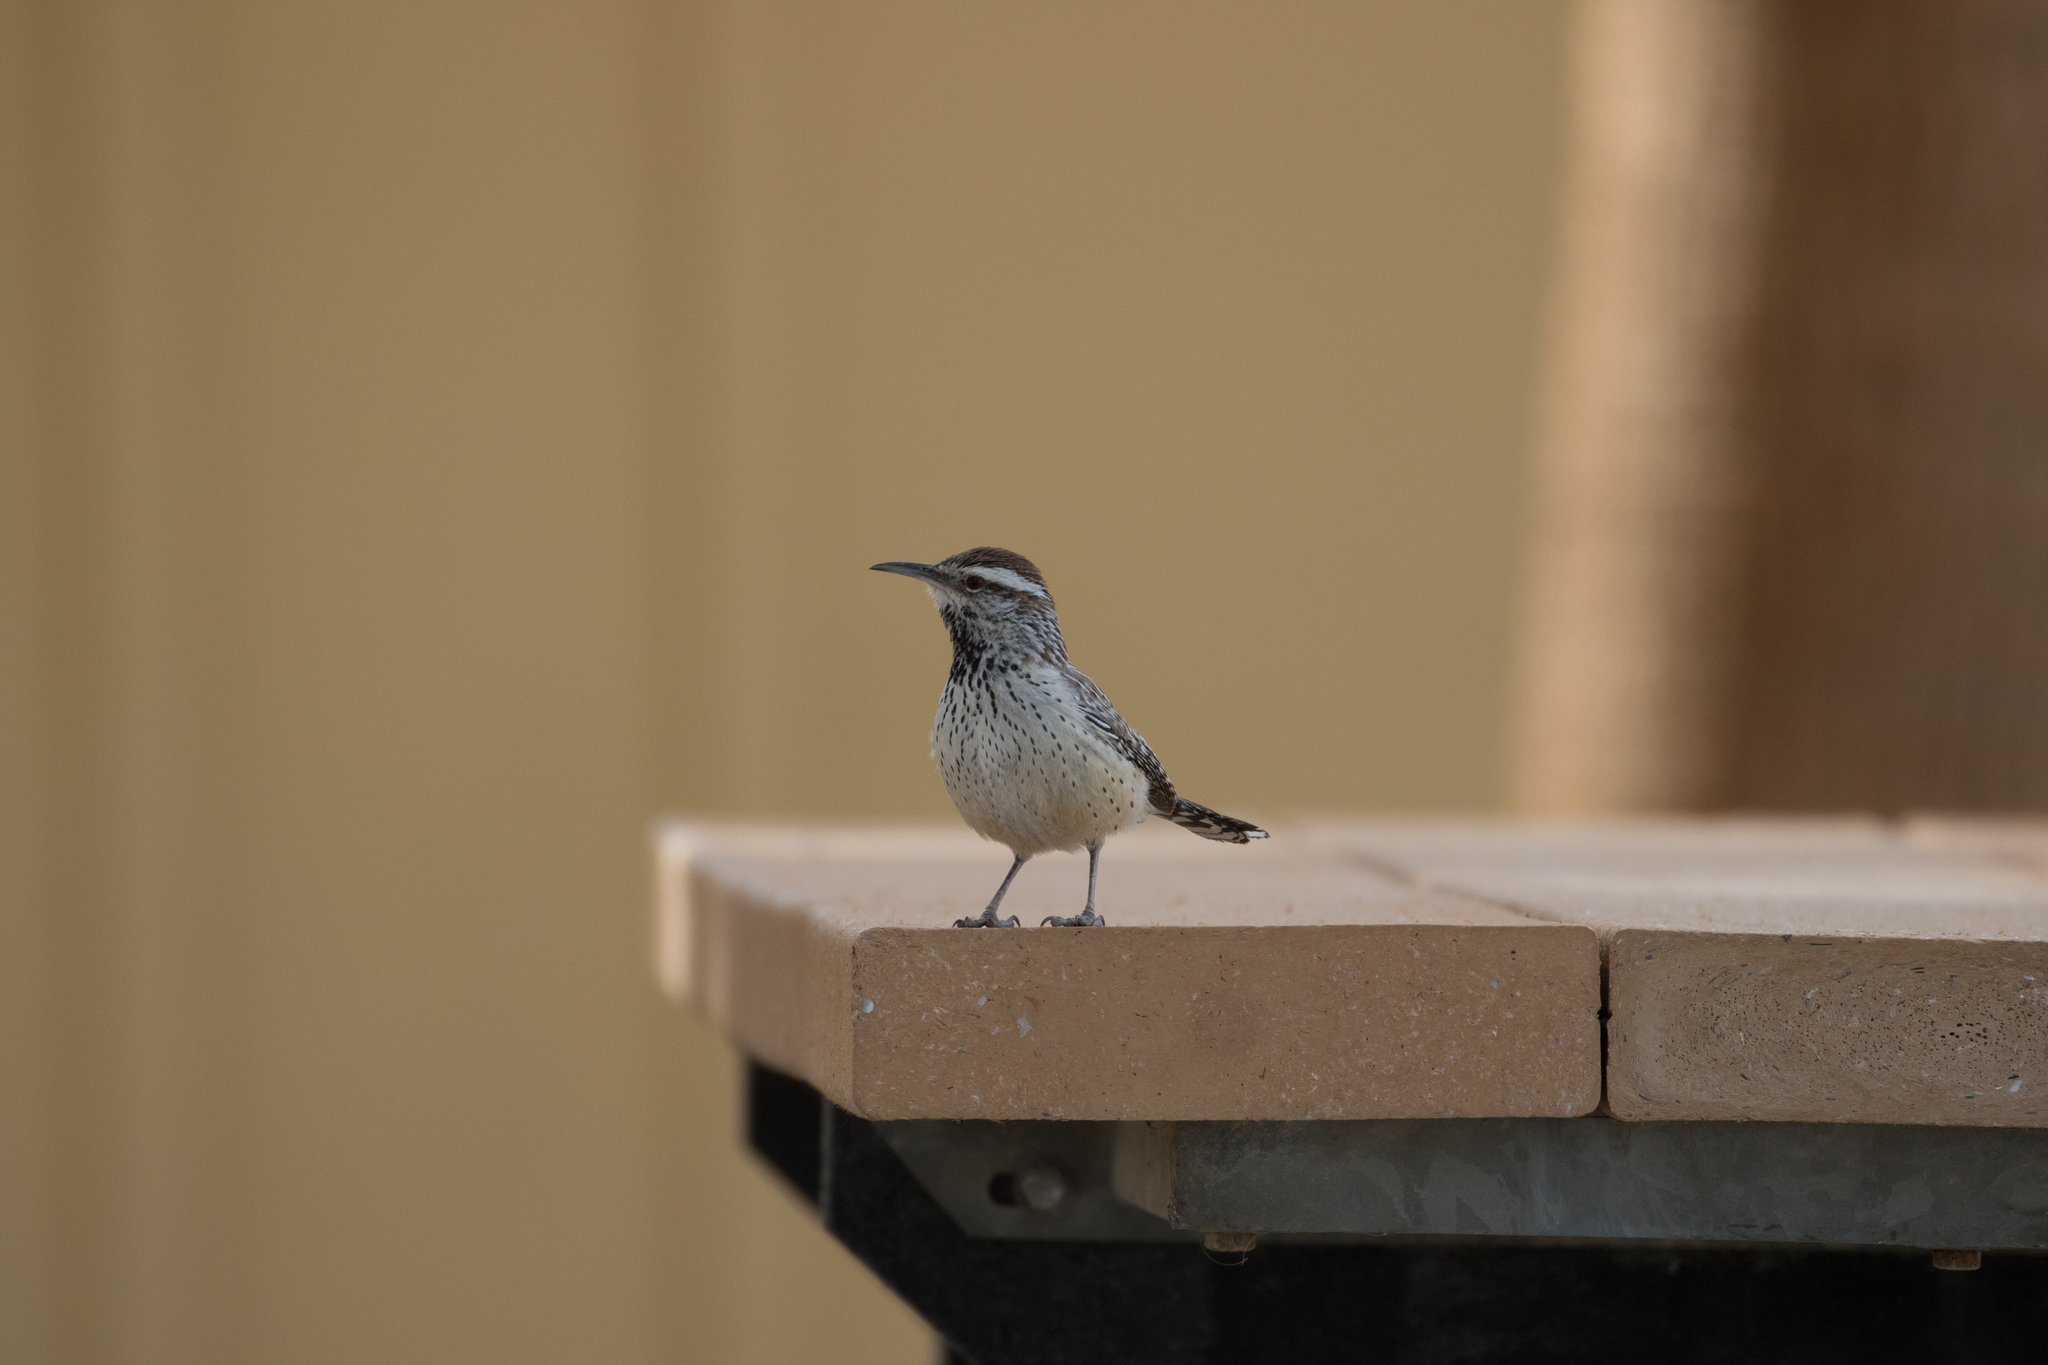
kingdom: Animalia
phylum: Chordata
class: Aves
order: Passeriformes
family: Troglodytidae
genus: Campylorhynchus
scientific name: Campylorhynchus brunneicapillus
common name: Cactus wren
